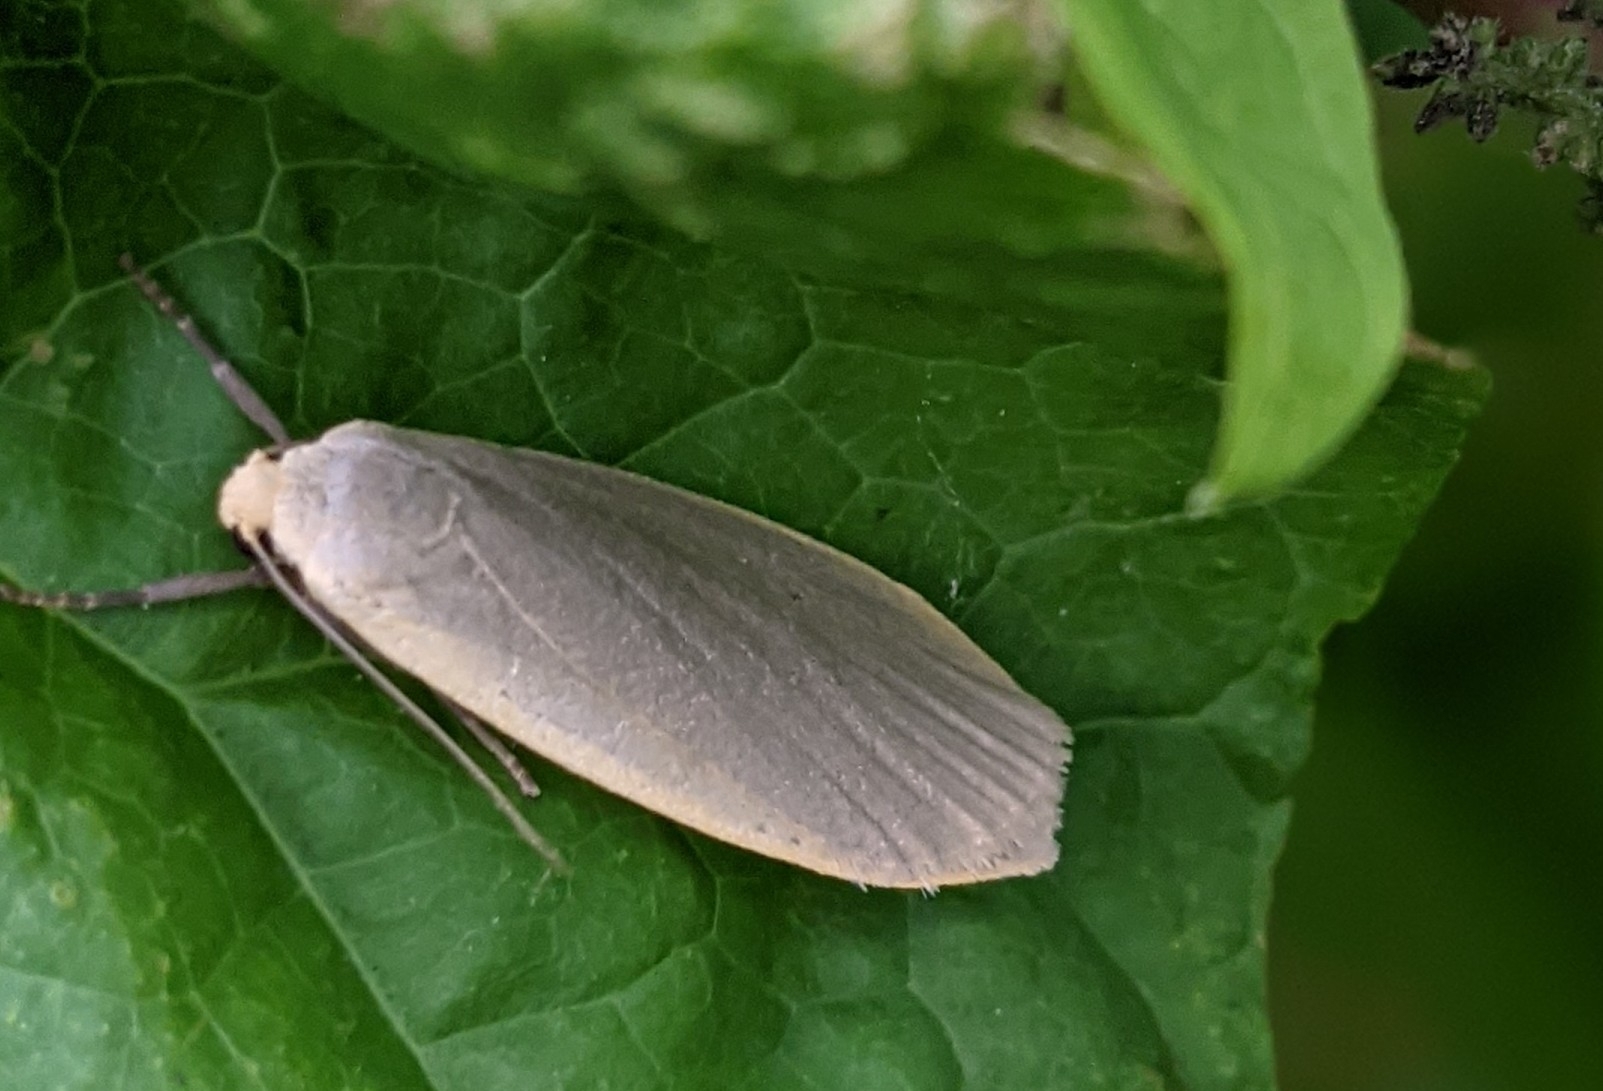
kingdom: Animalia
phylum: Arthropoda
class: Insecta
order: Lepidoptera
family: Erebidae
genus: Collita
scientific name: Collita griseola
